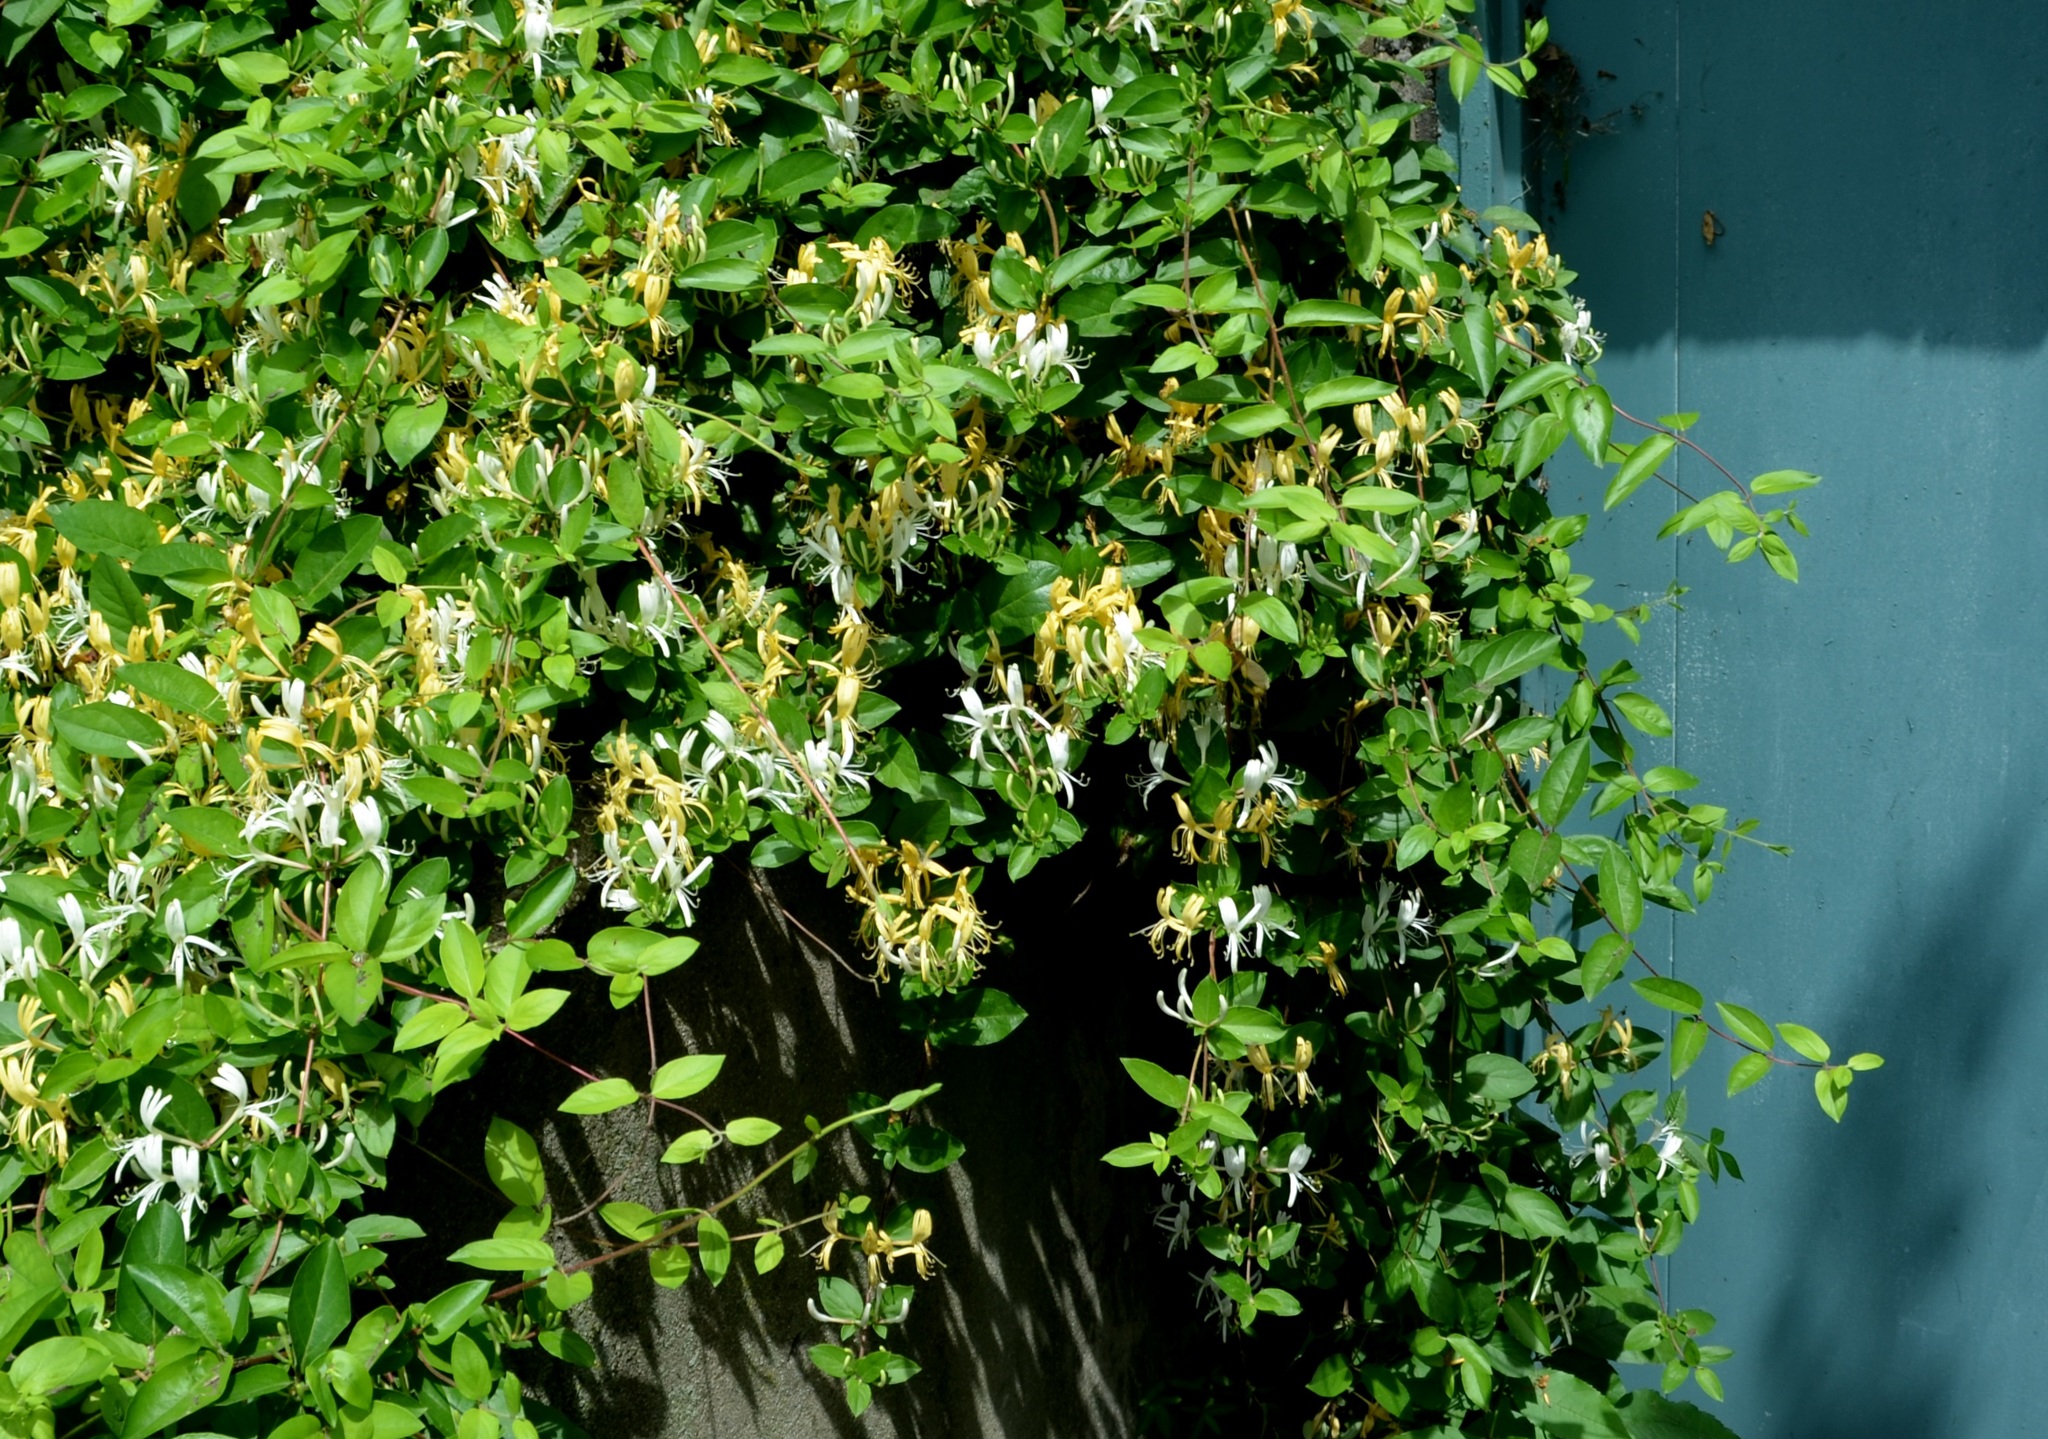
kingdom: Plantae
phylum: Tracheophyta
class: Magnoliopsida
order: Dipsacales
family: Caprifoliaceae
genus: Lonicera
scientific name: Lonicera japonica
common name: Japanese honeysuckle
